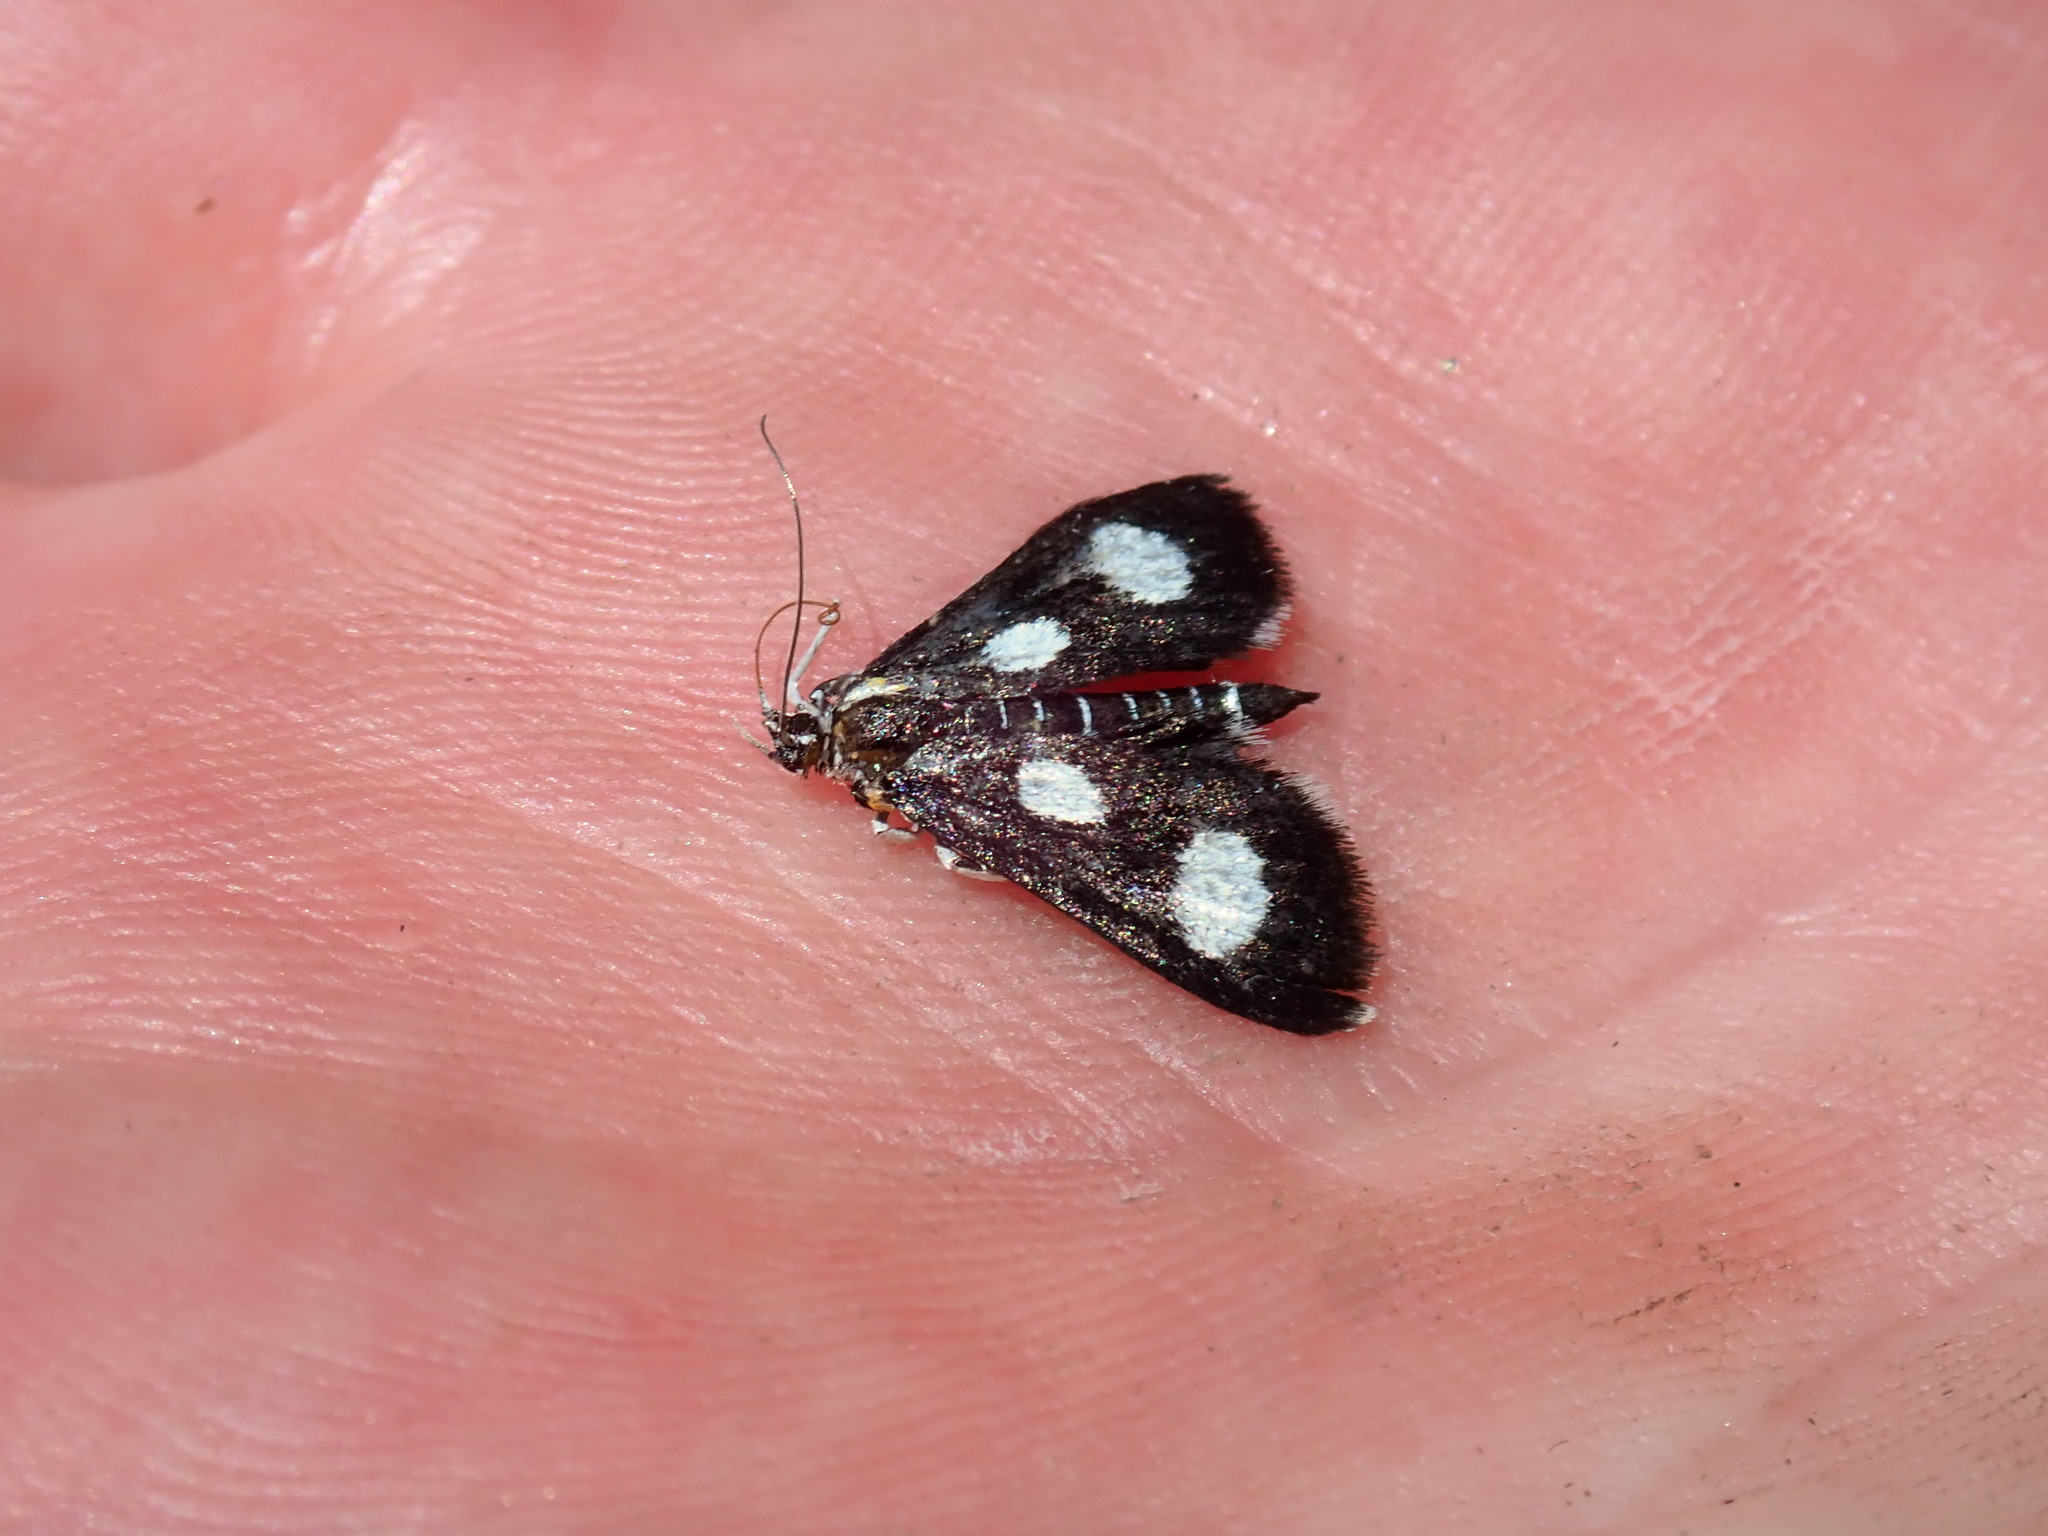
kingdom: Animalia
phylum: Arthropoda
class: Insecta
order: Lepidoptera
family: Crambidae
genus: Anania
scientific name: Anania funebris
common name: White-spotted sable moth
